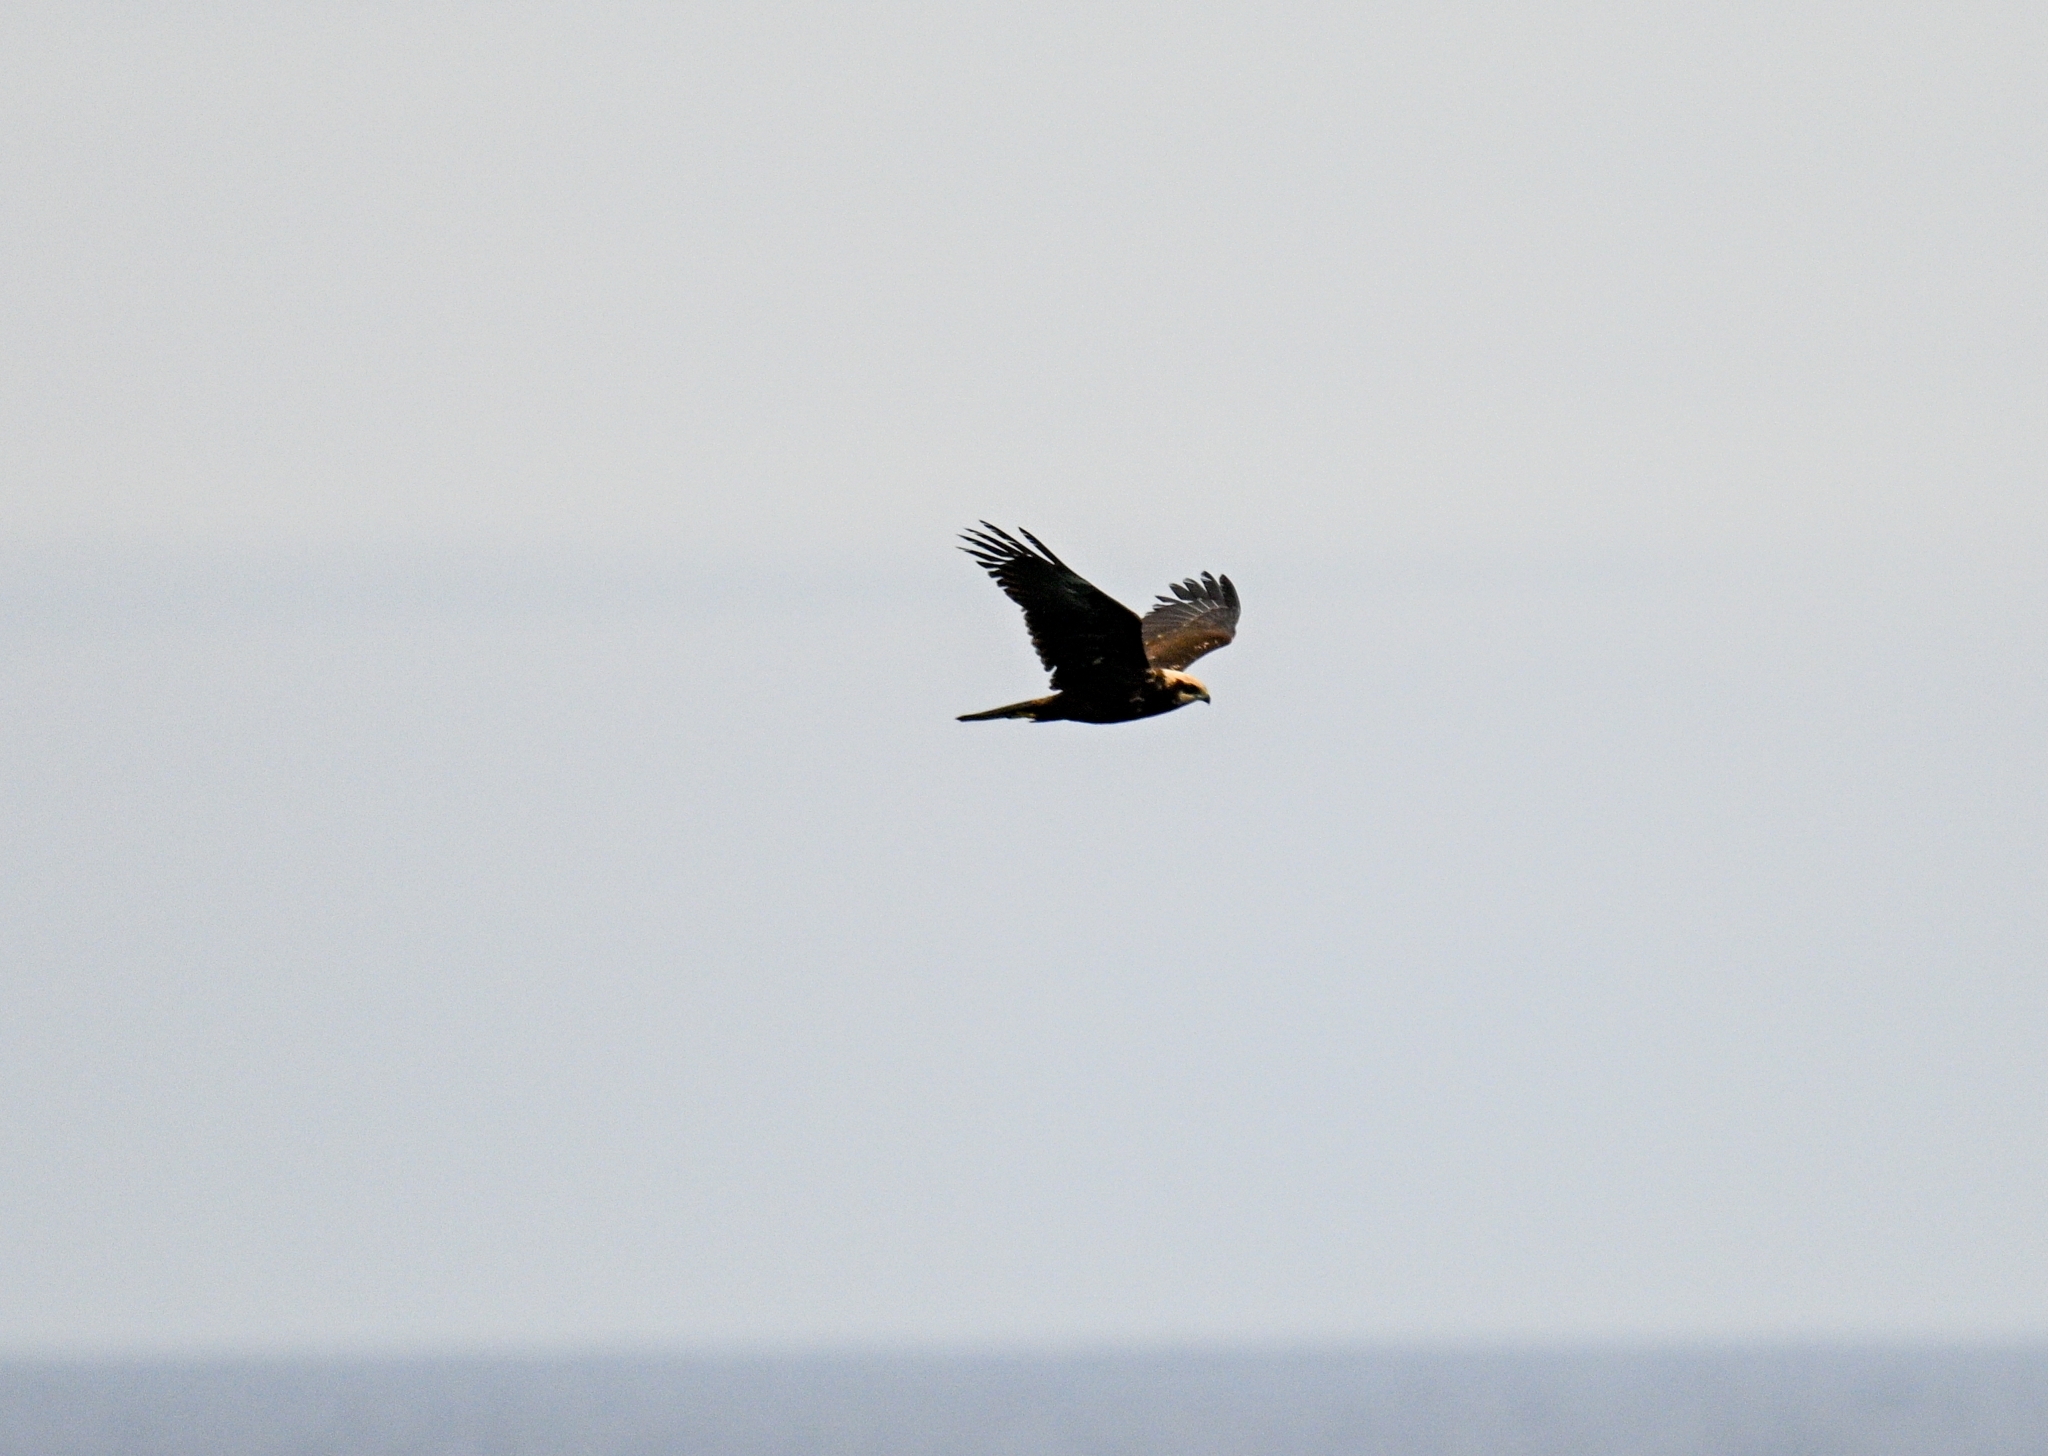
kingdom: Animalia
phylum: Chordata
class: Aves
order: Accipitriformes
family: Accipitridae
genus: Circus
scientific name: Circus aeruginosus
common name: Western marsh harrier
